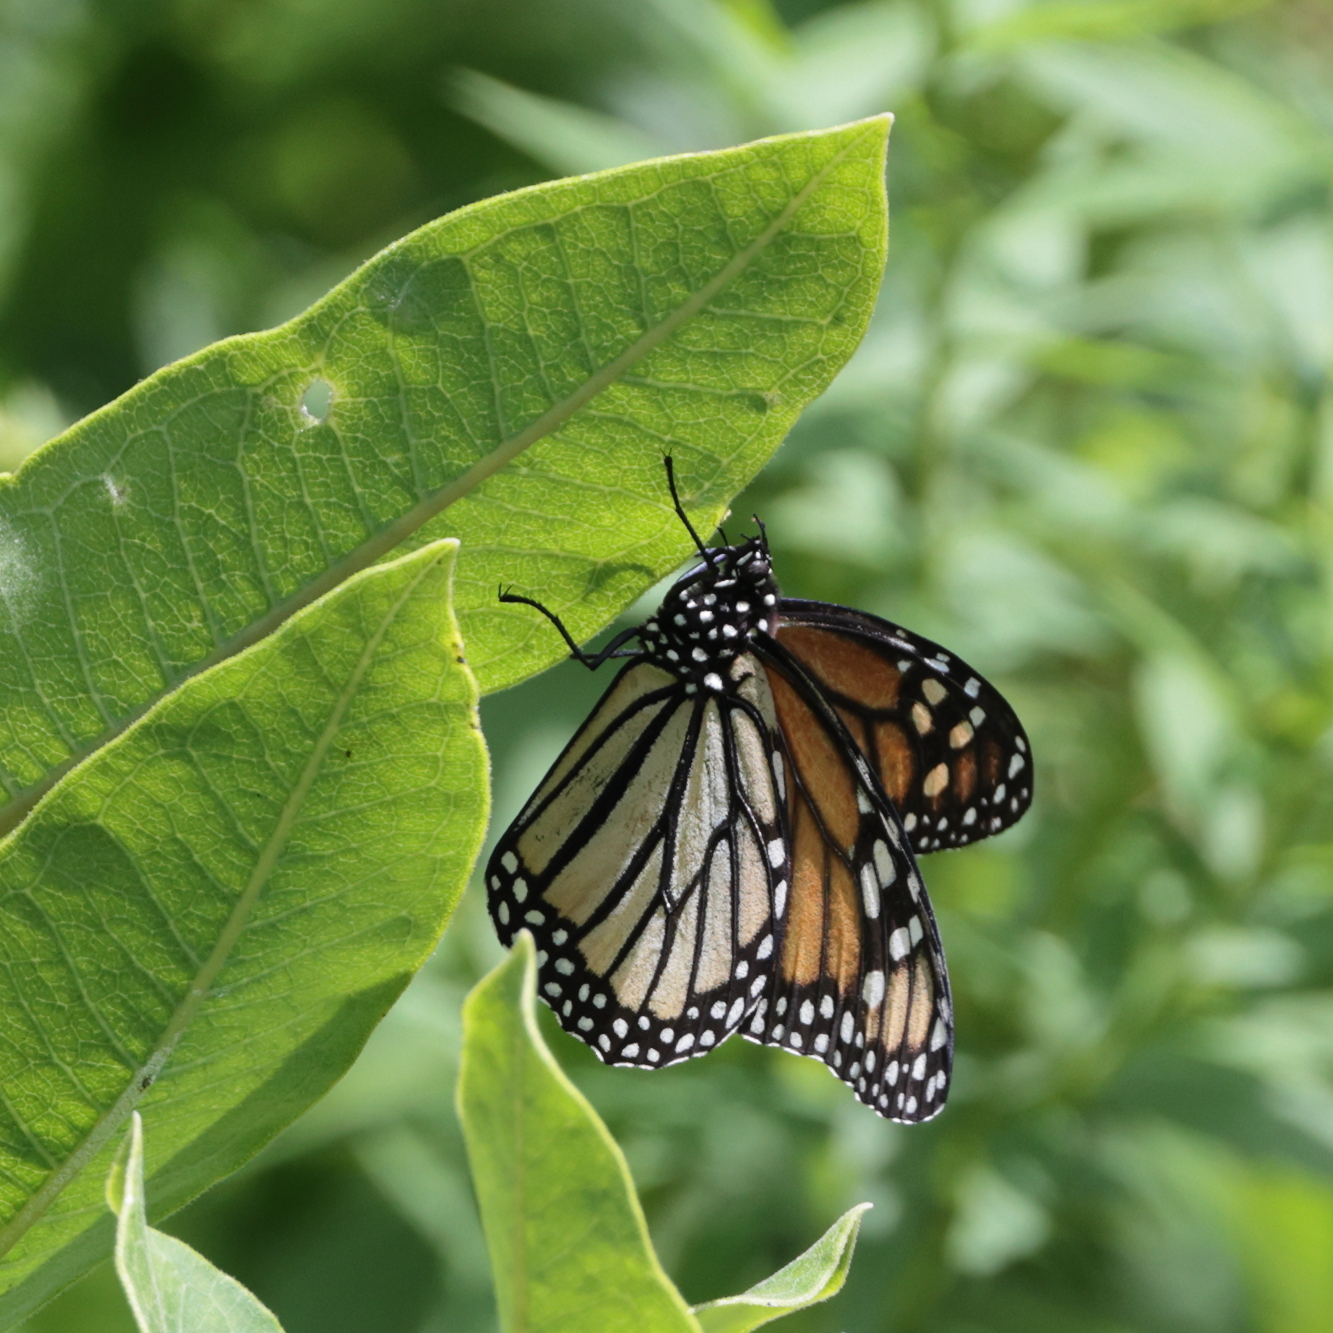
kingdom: Animalia
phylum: Arthropoda
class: Insecta
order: Lepidoptera
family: Nymphalidae
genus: Danaus
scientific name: Danaus plexippus
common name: Monarch
